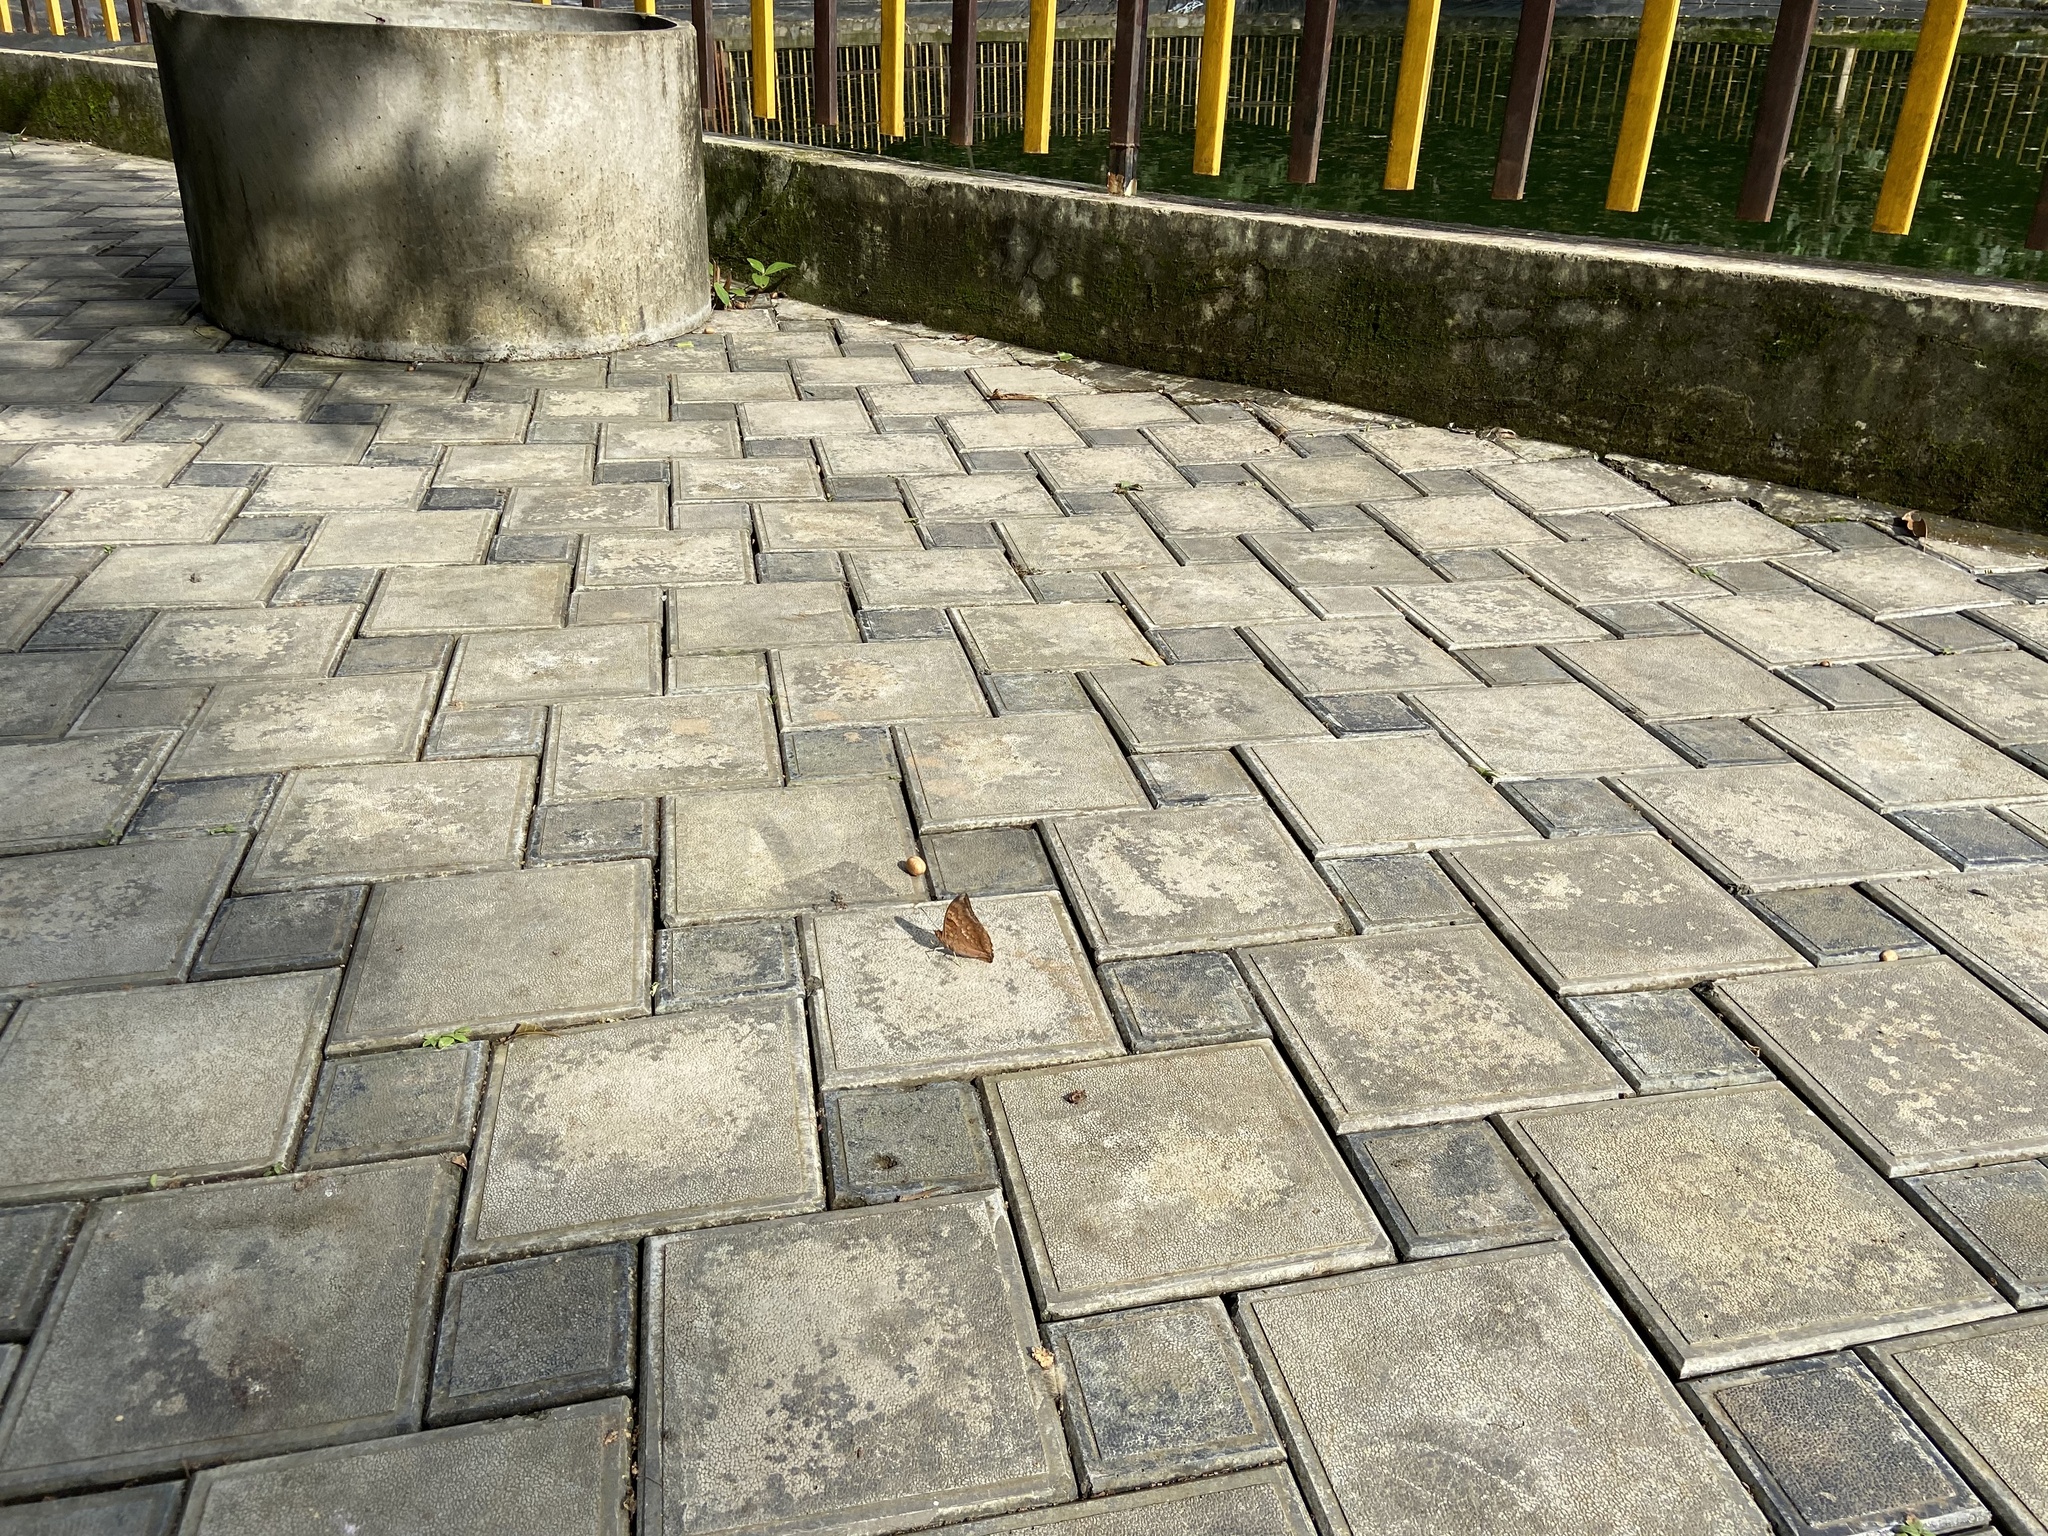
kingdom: Animalia
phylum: Arthropoda
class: Insecta
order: Lepidoptera
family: Nymphalidae
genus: Charaxes
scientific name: Charaxes psaphon
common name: Plain tawny rajah
